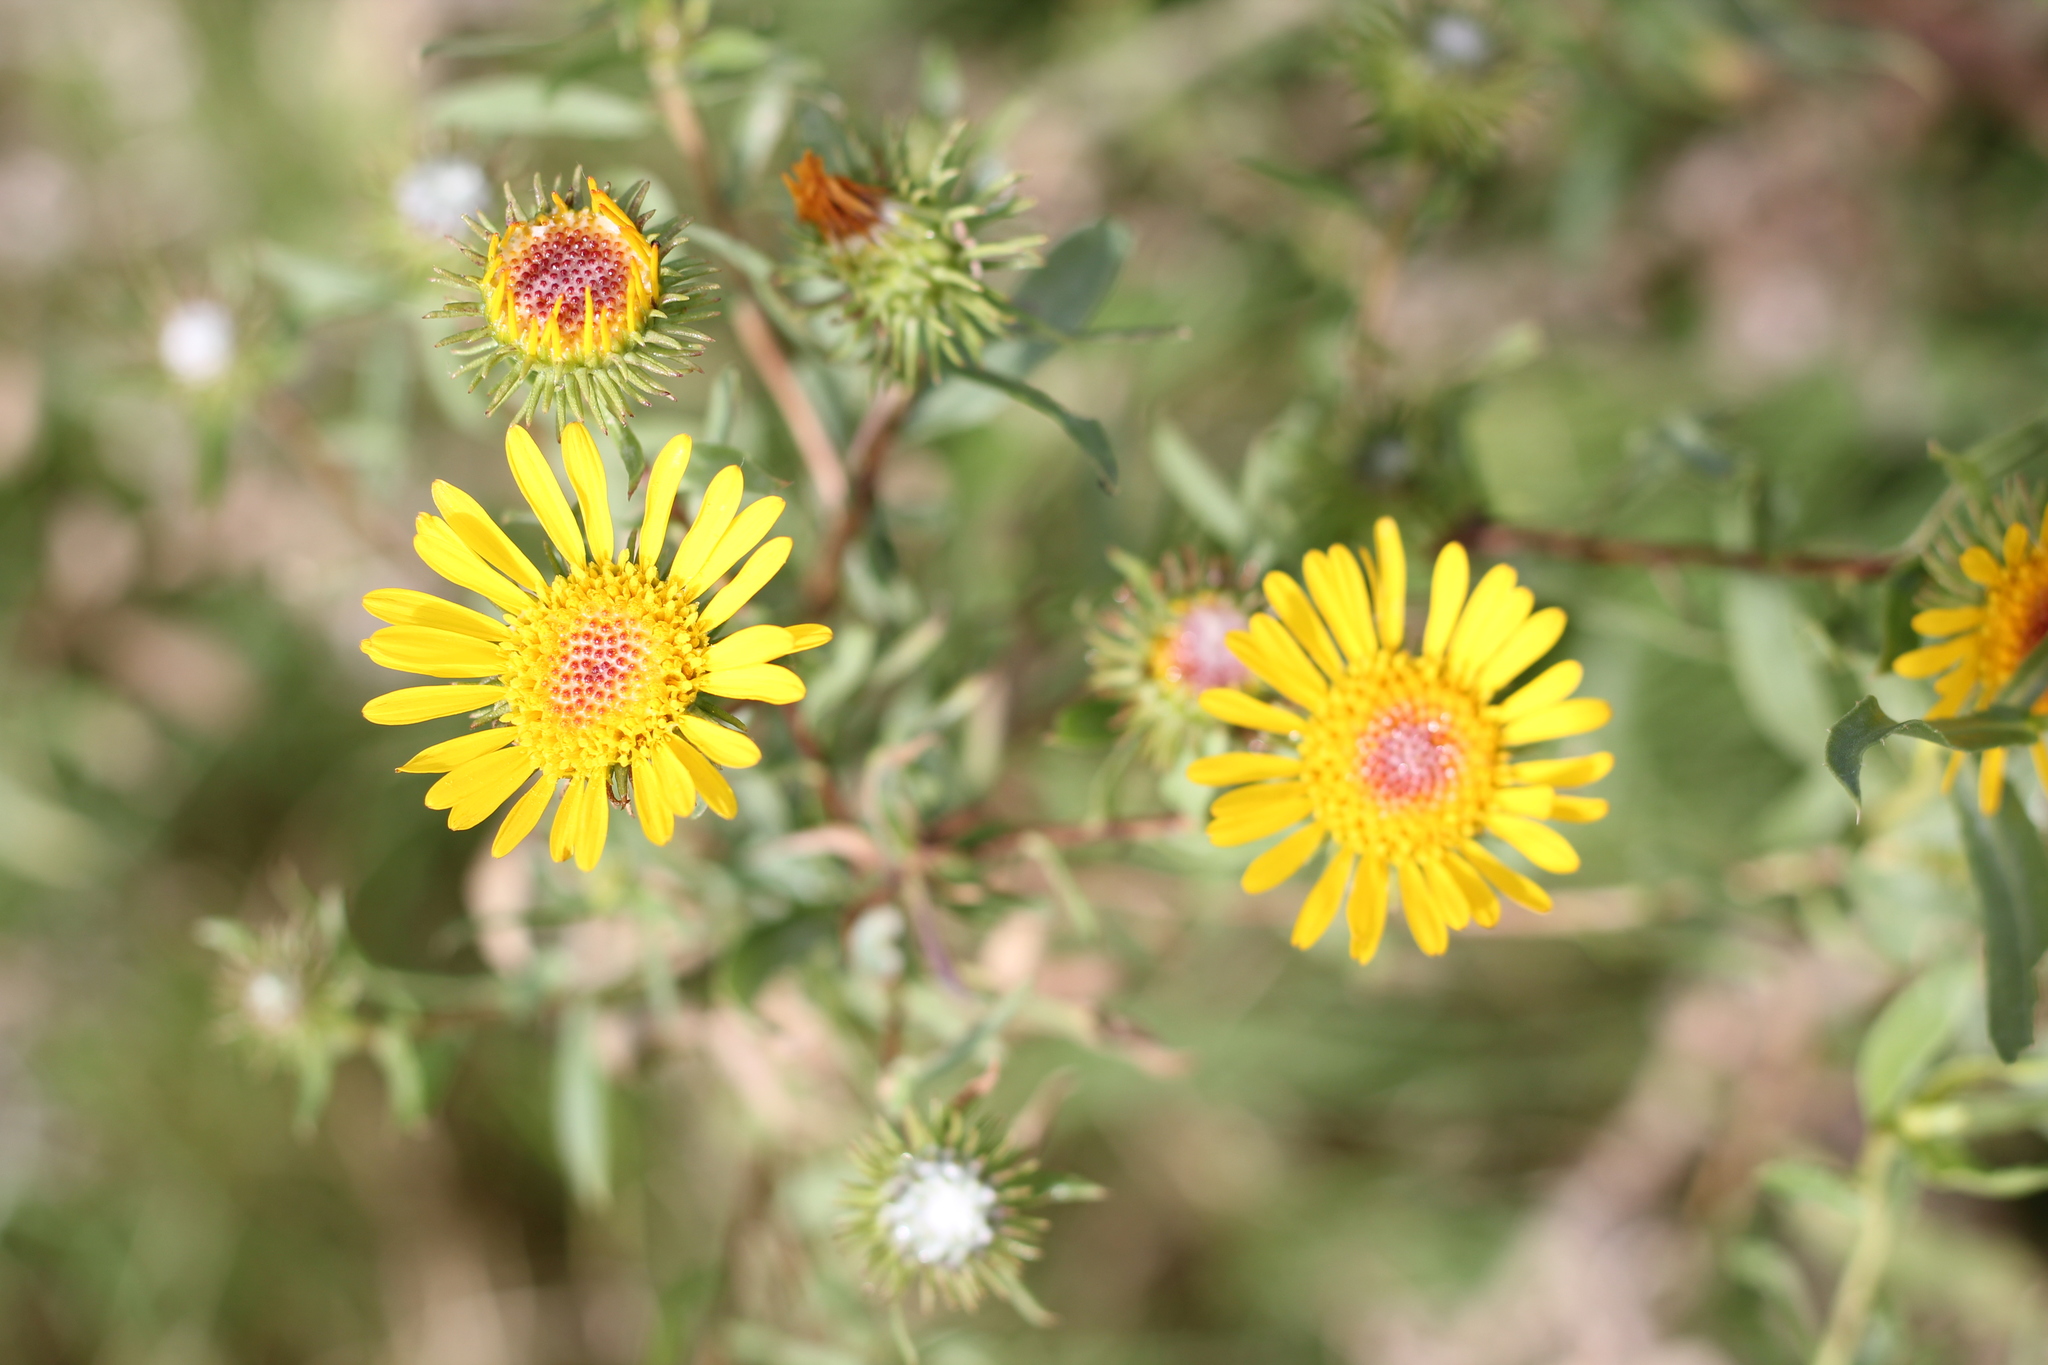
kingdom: Plantae
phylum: Tracheophyta
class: Magnoliopsida
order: Asterales
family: Asteraceae
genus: Grindelia
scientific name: Grindelia pulchella
